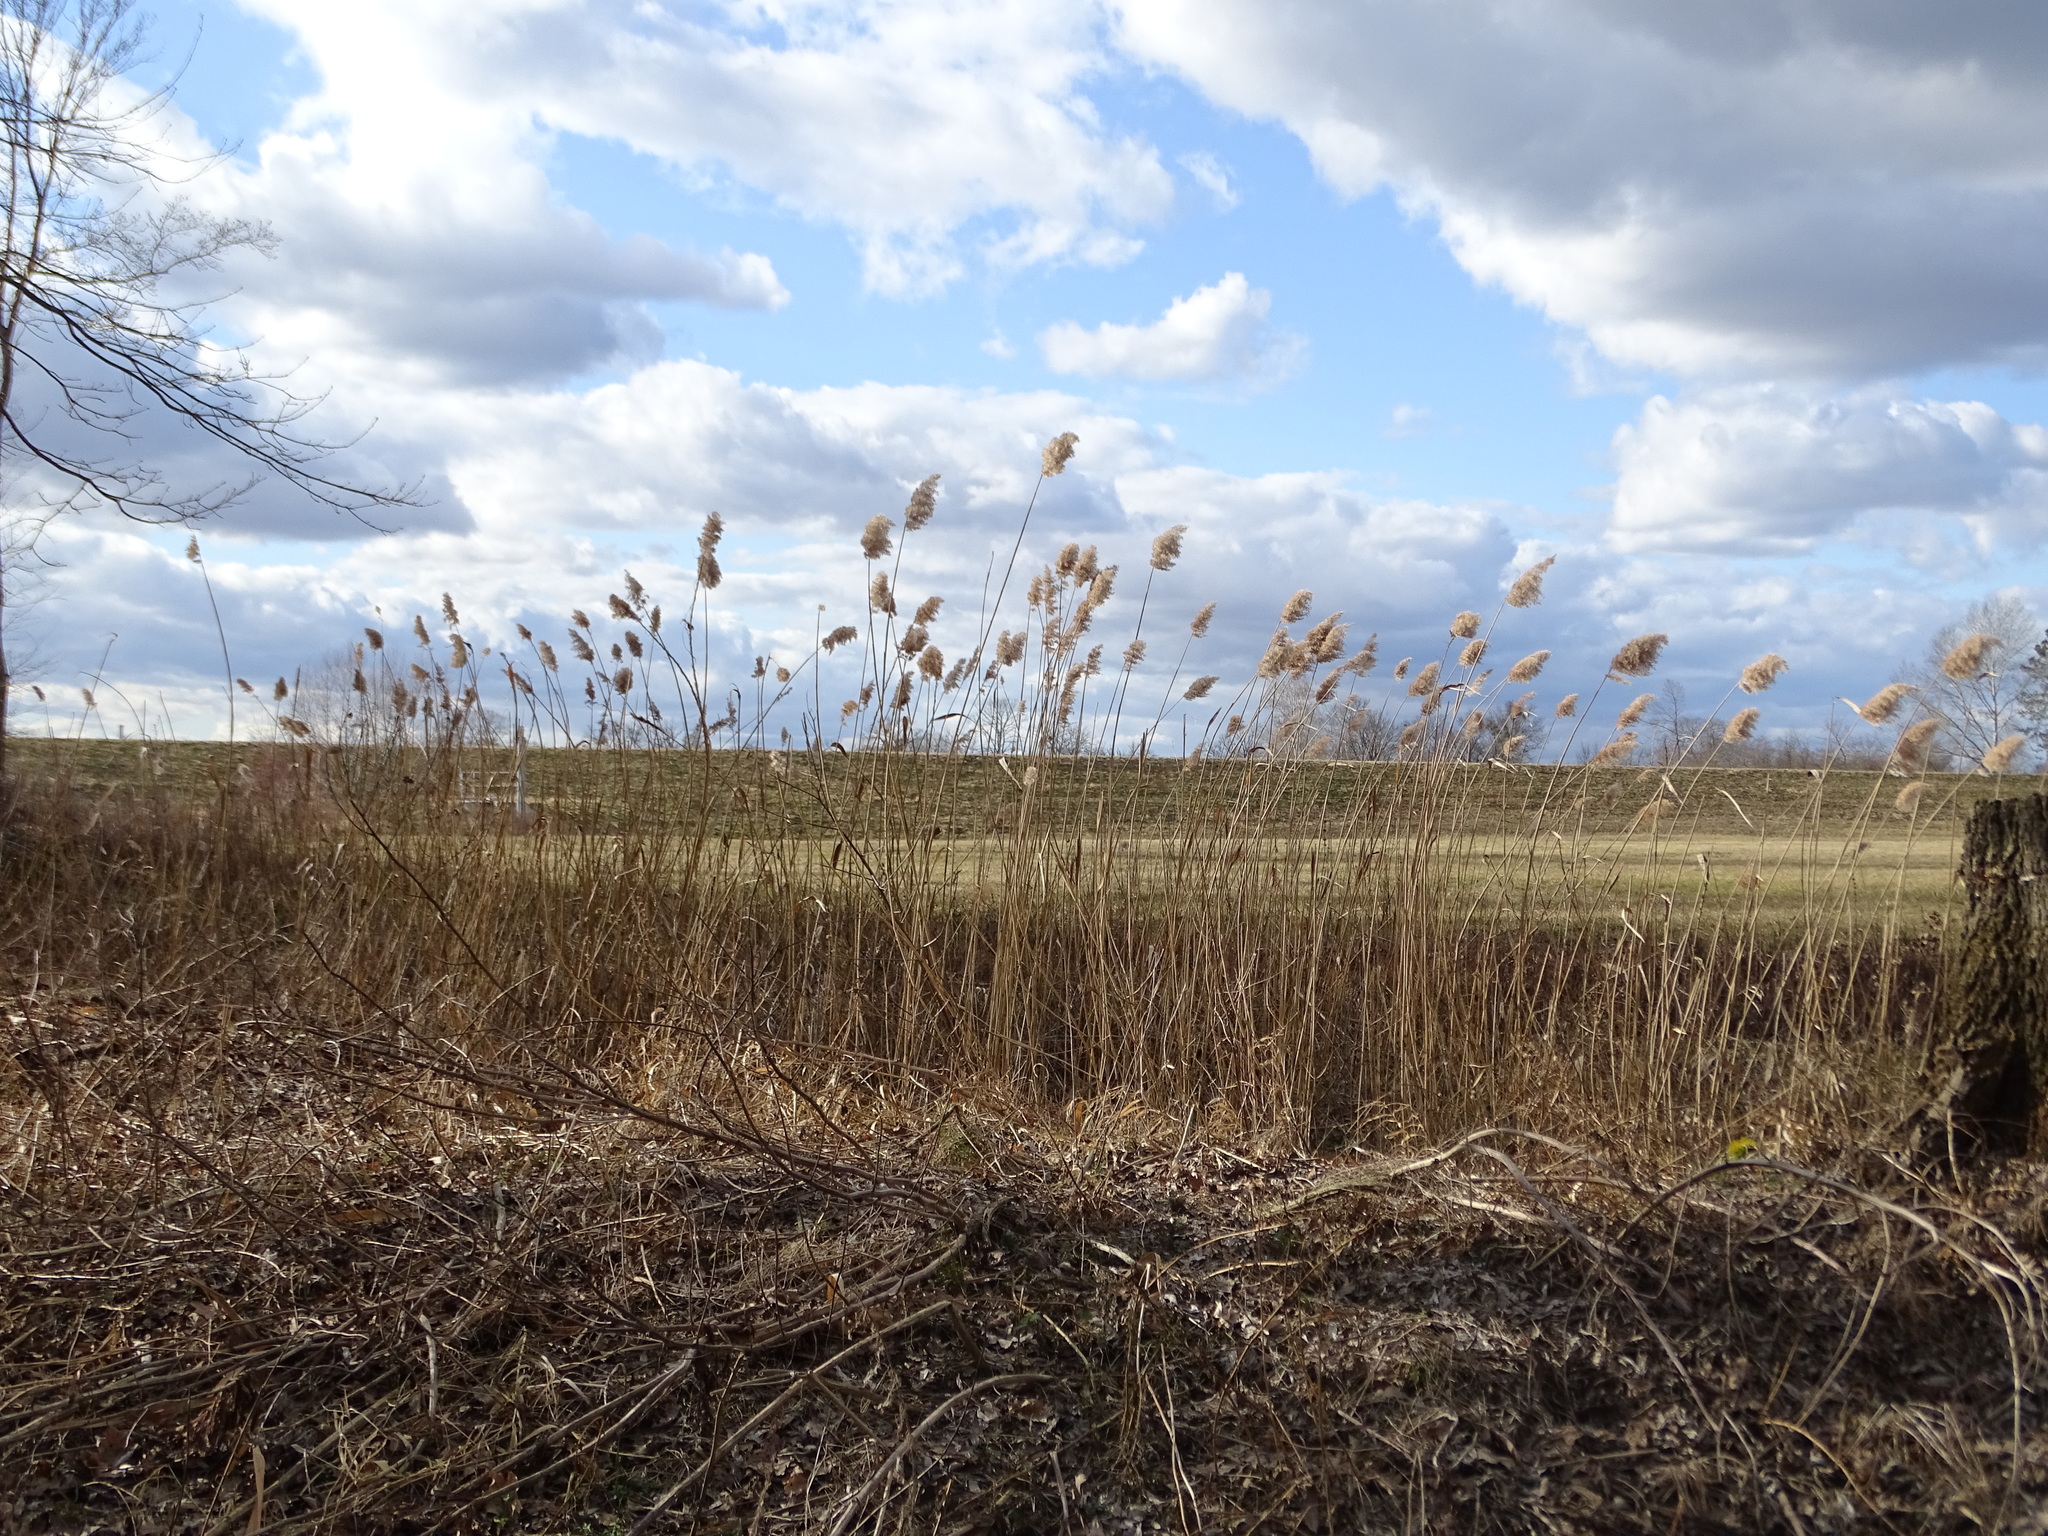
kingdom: Plantae
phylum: Tracheophyta
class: Liliopsida
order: Poales
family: Poaceae
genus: Phragmites
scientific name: Phragmites australis
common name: Common reed
